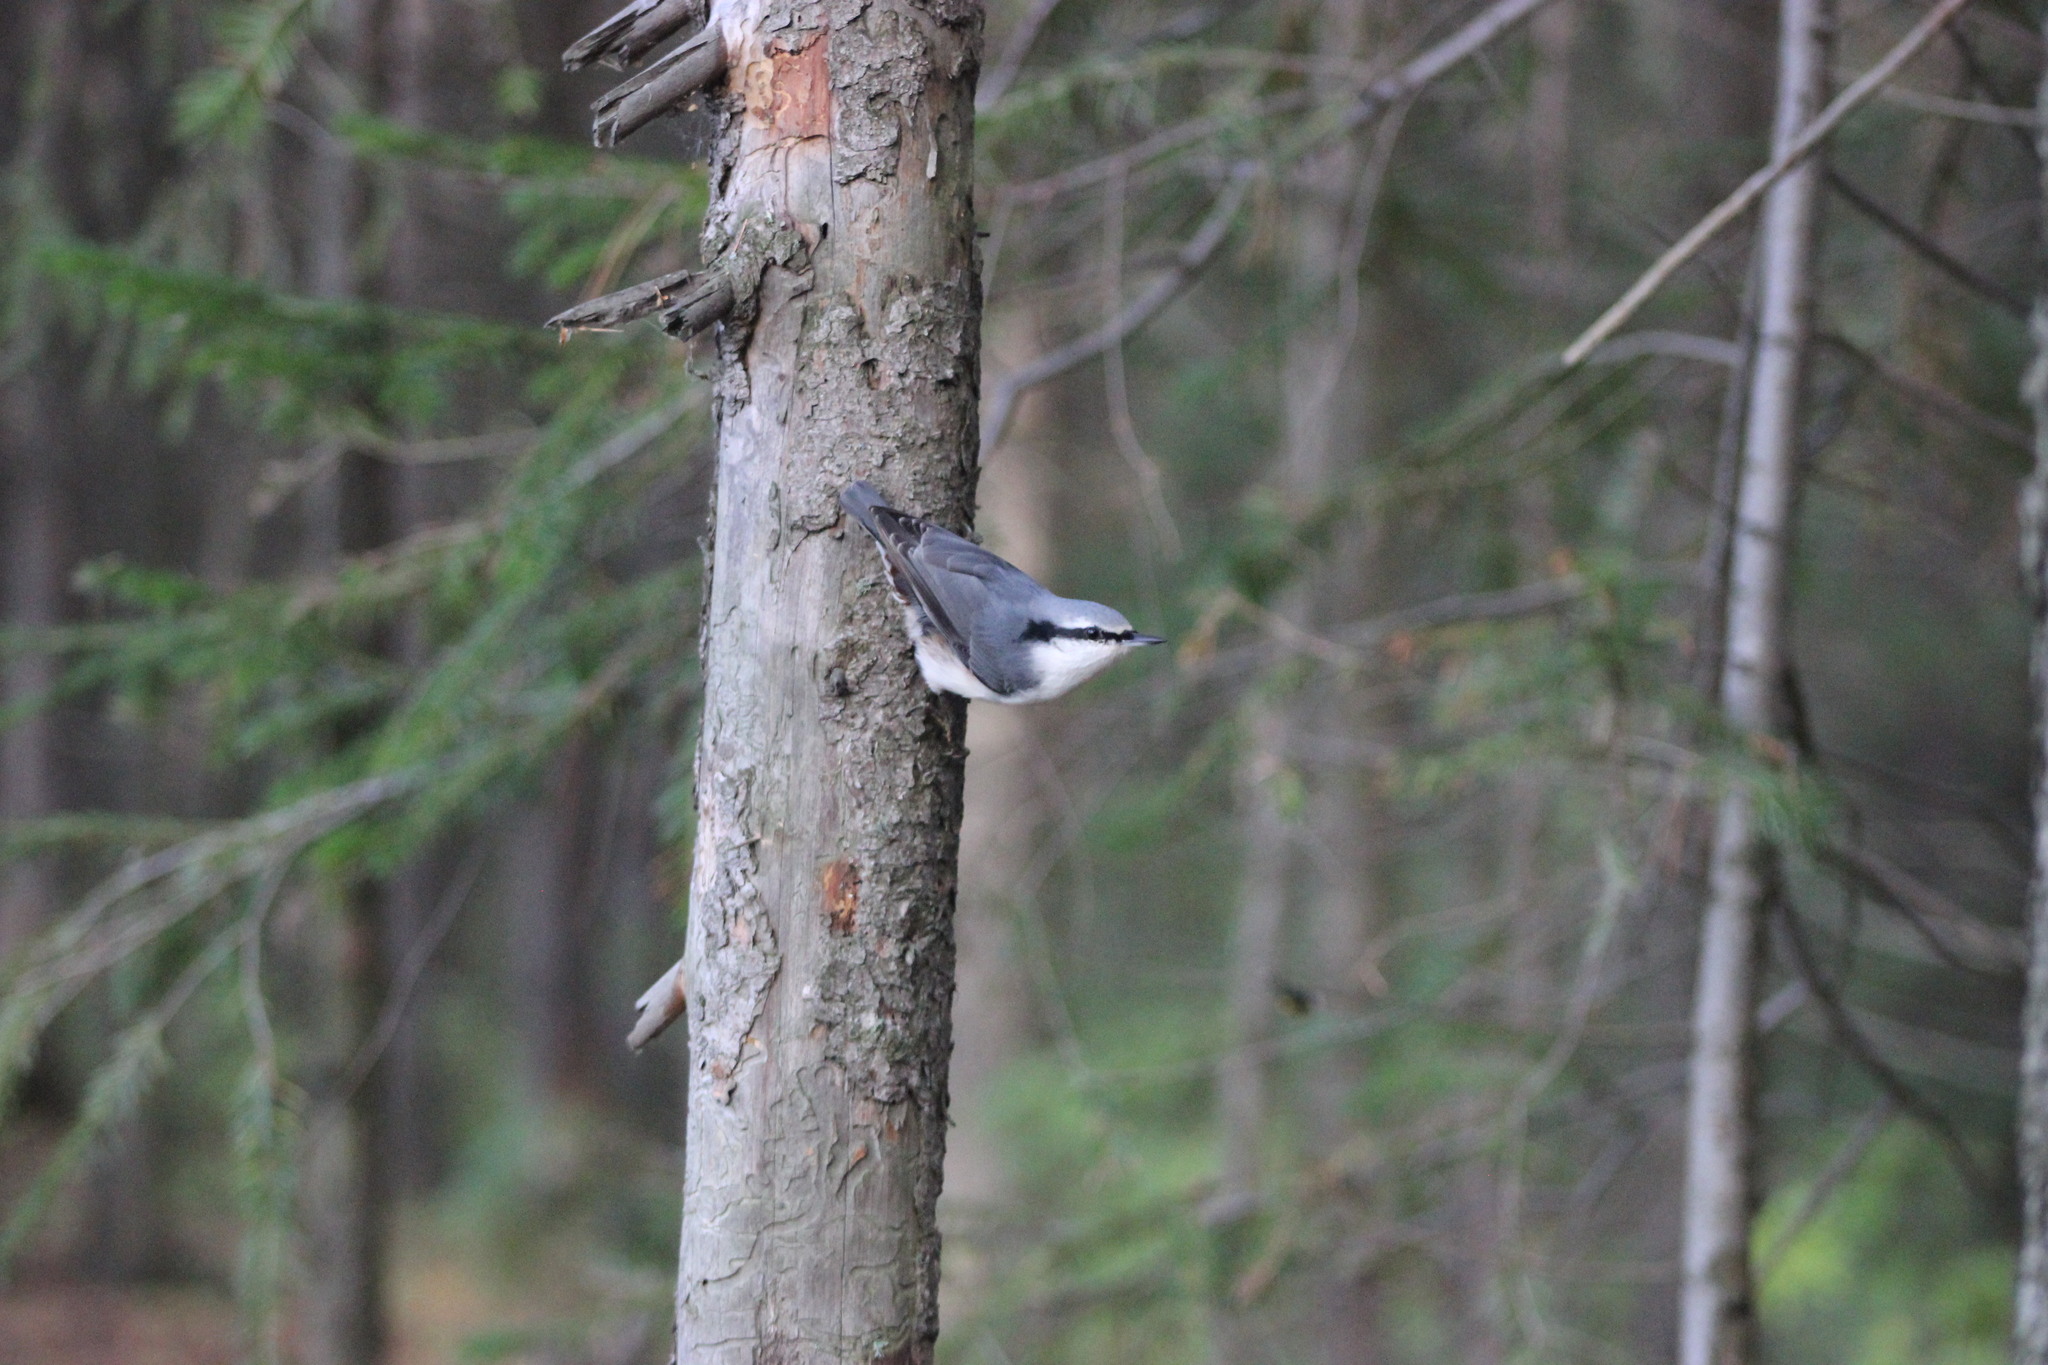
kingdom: Animalia
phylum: Chordata
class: Aves
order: Passeriformes
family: Sittidae
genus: Sitta
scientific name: Sitta europaea
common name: Eurasian nuthatch
